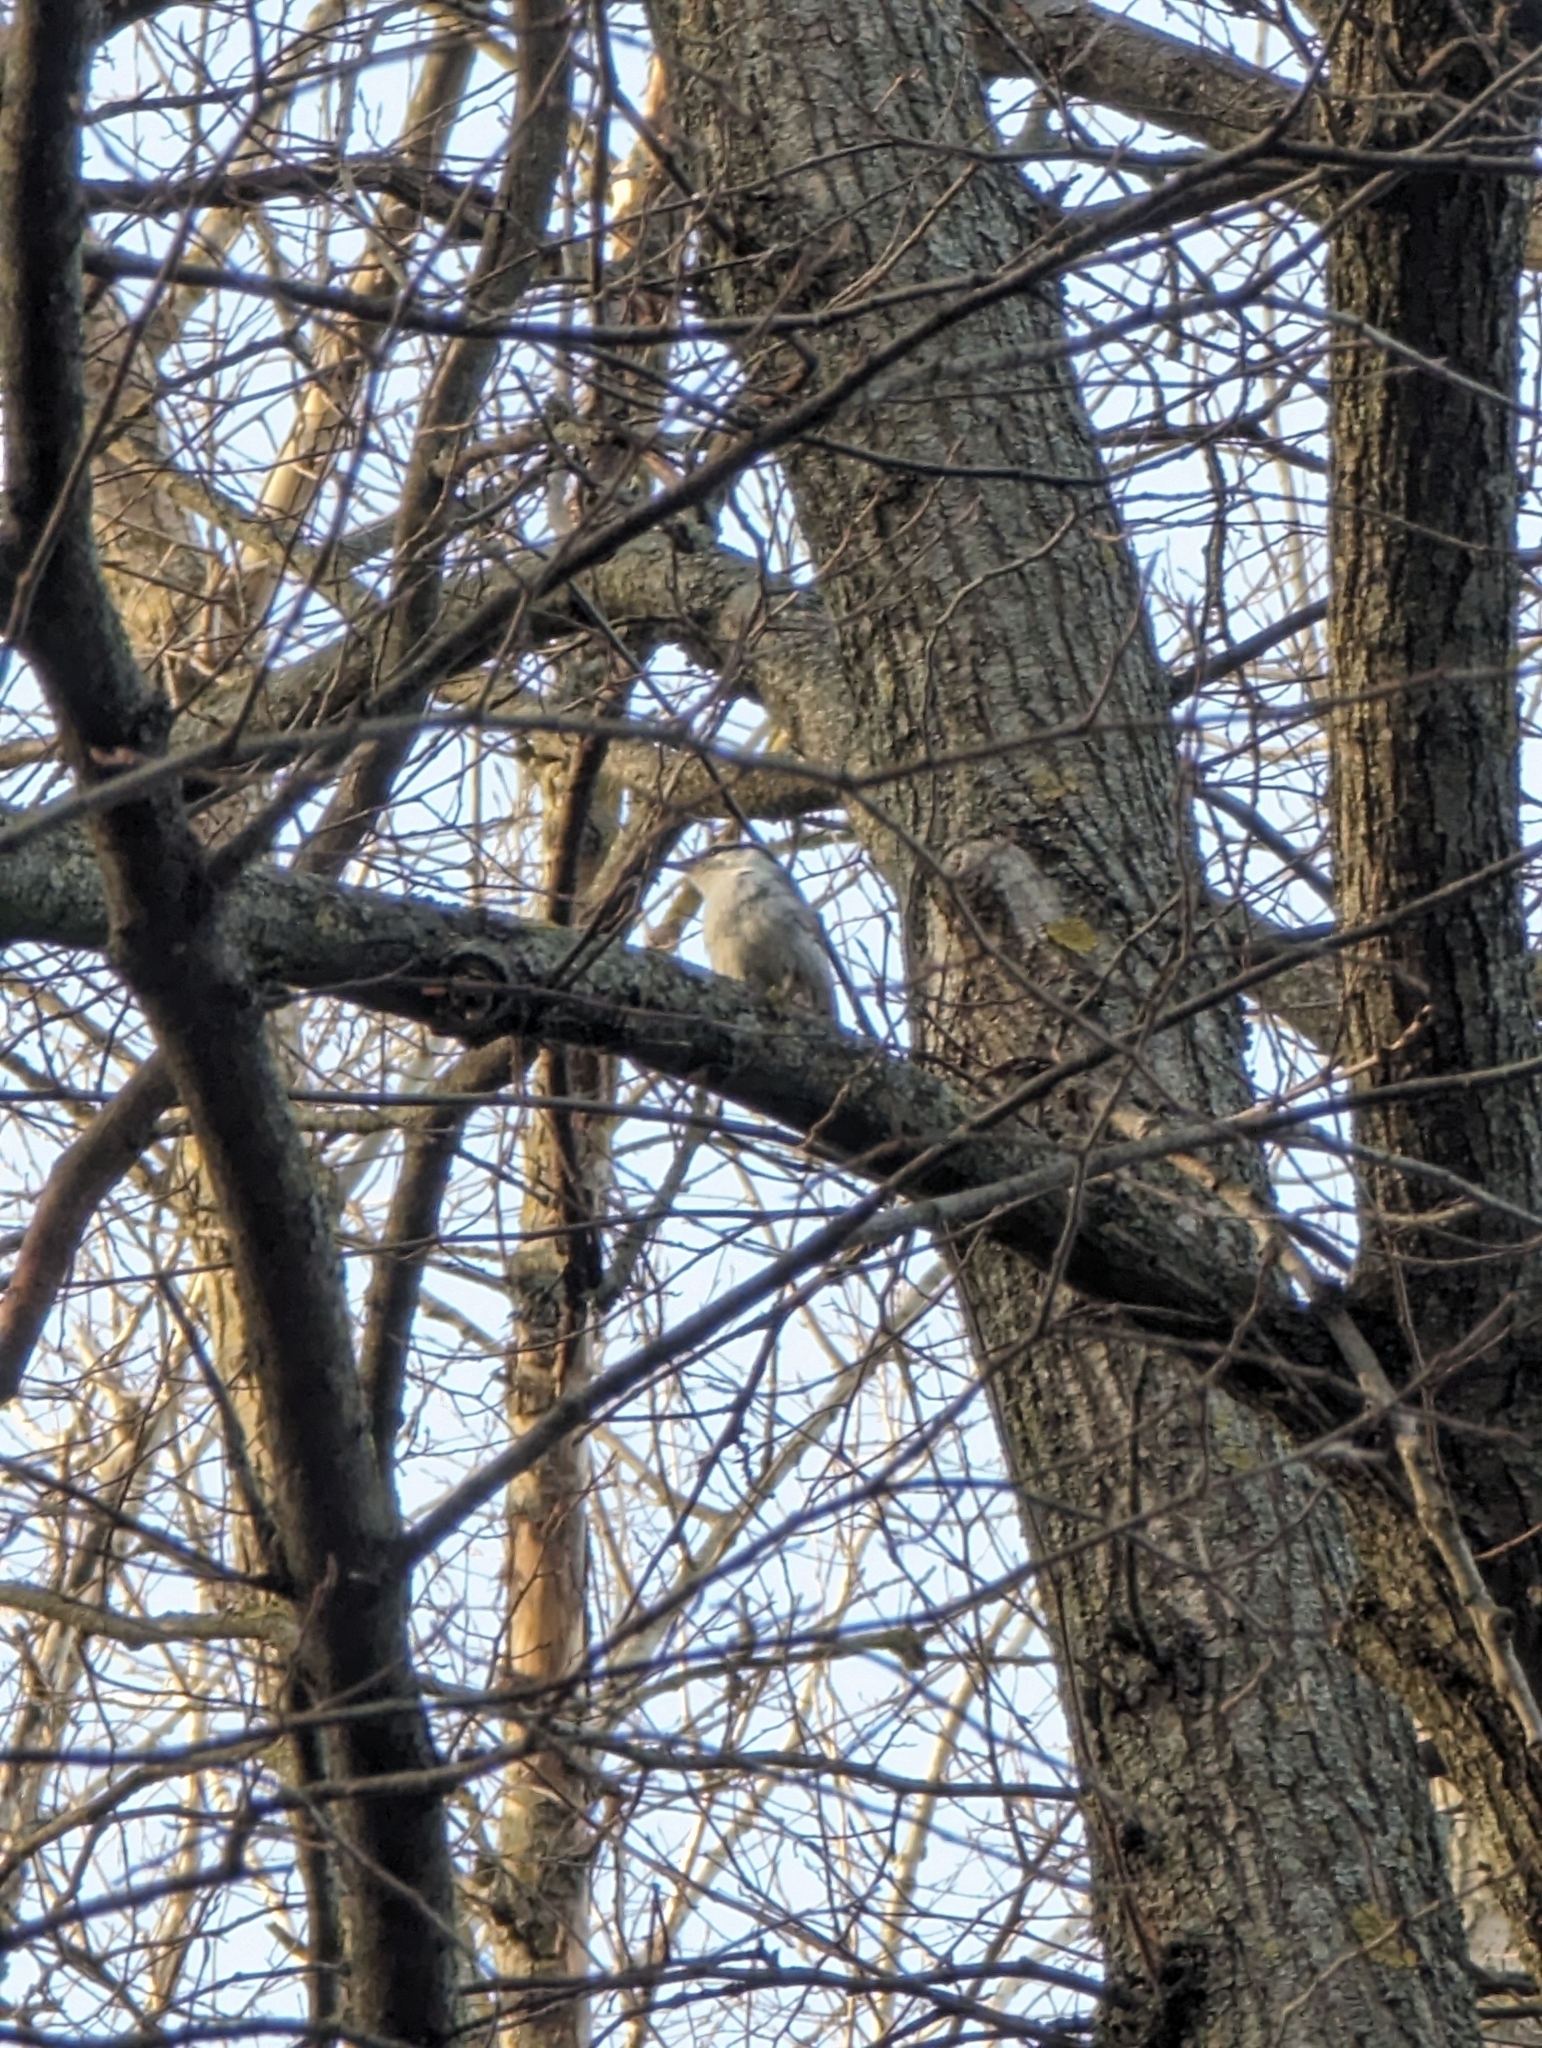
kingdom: Animalia
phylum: Chordata
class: Aves
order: Passeriformes
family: Sittidae
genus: Sitta
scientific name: Sitta europaea
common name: Eurasian nuthatch
